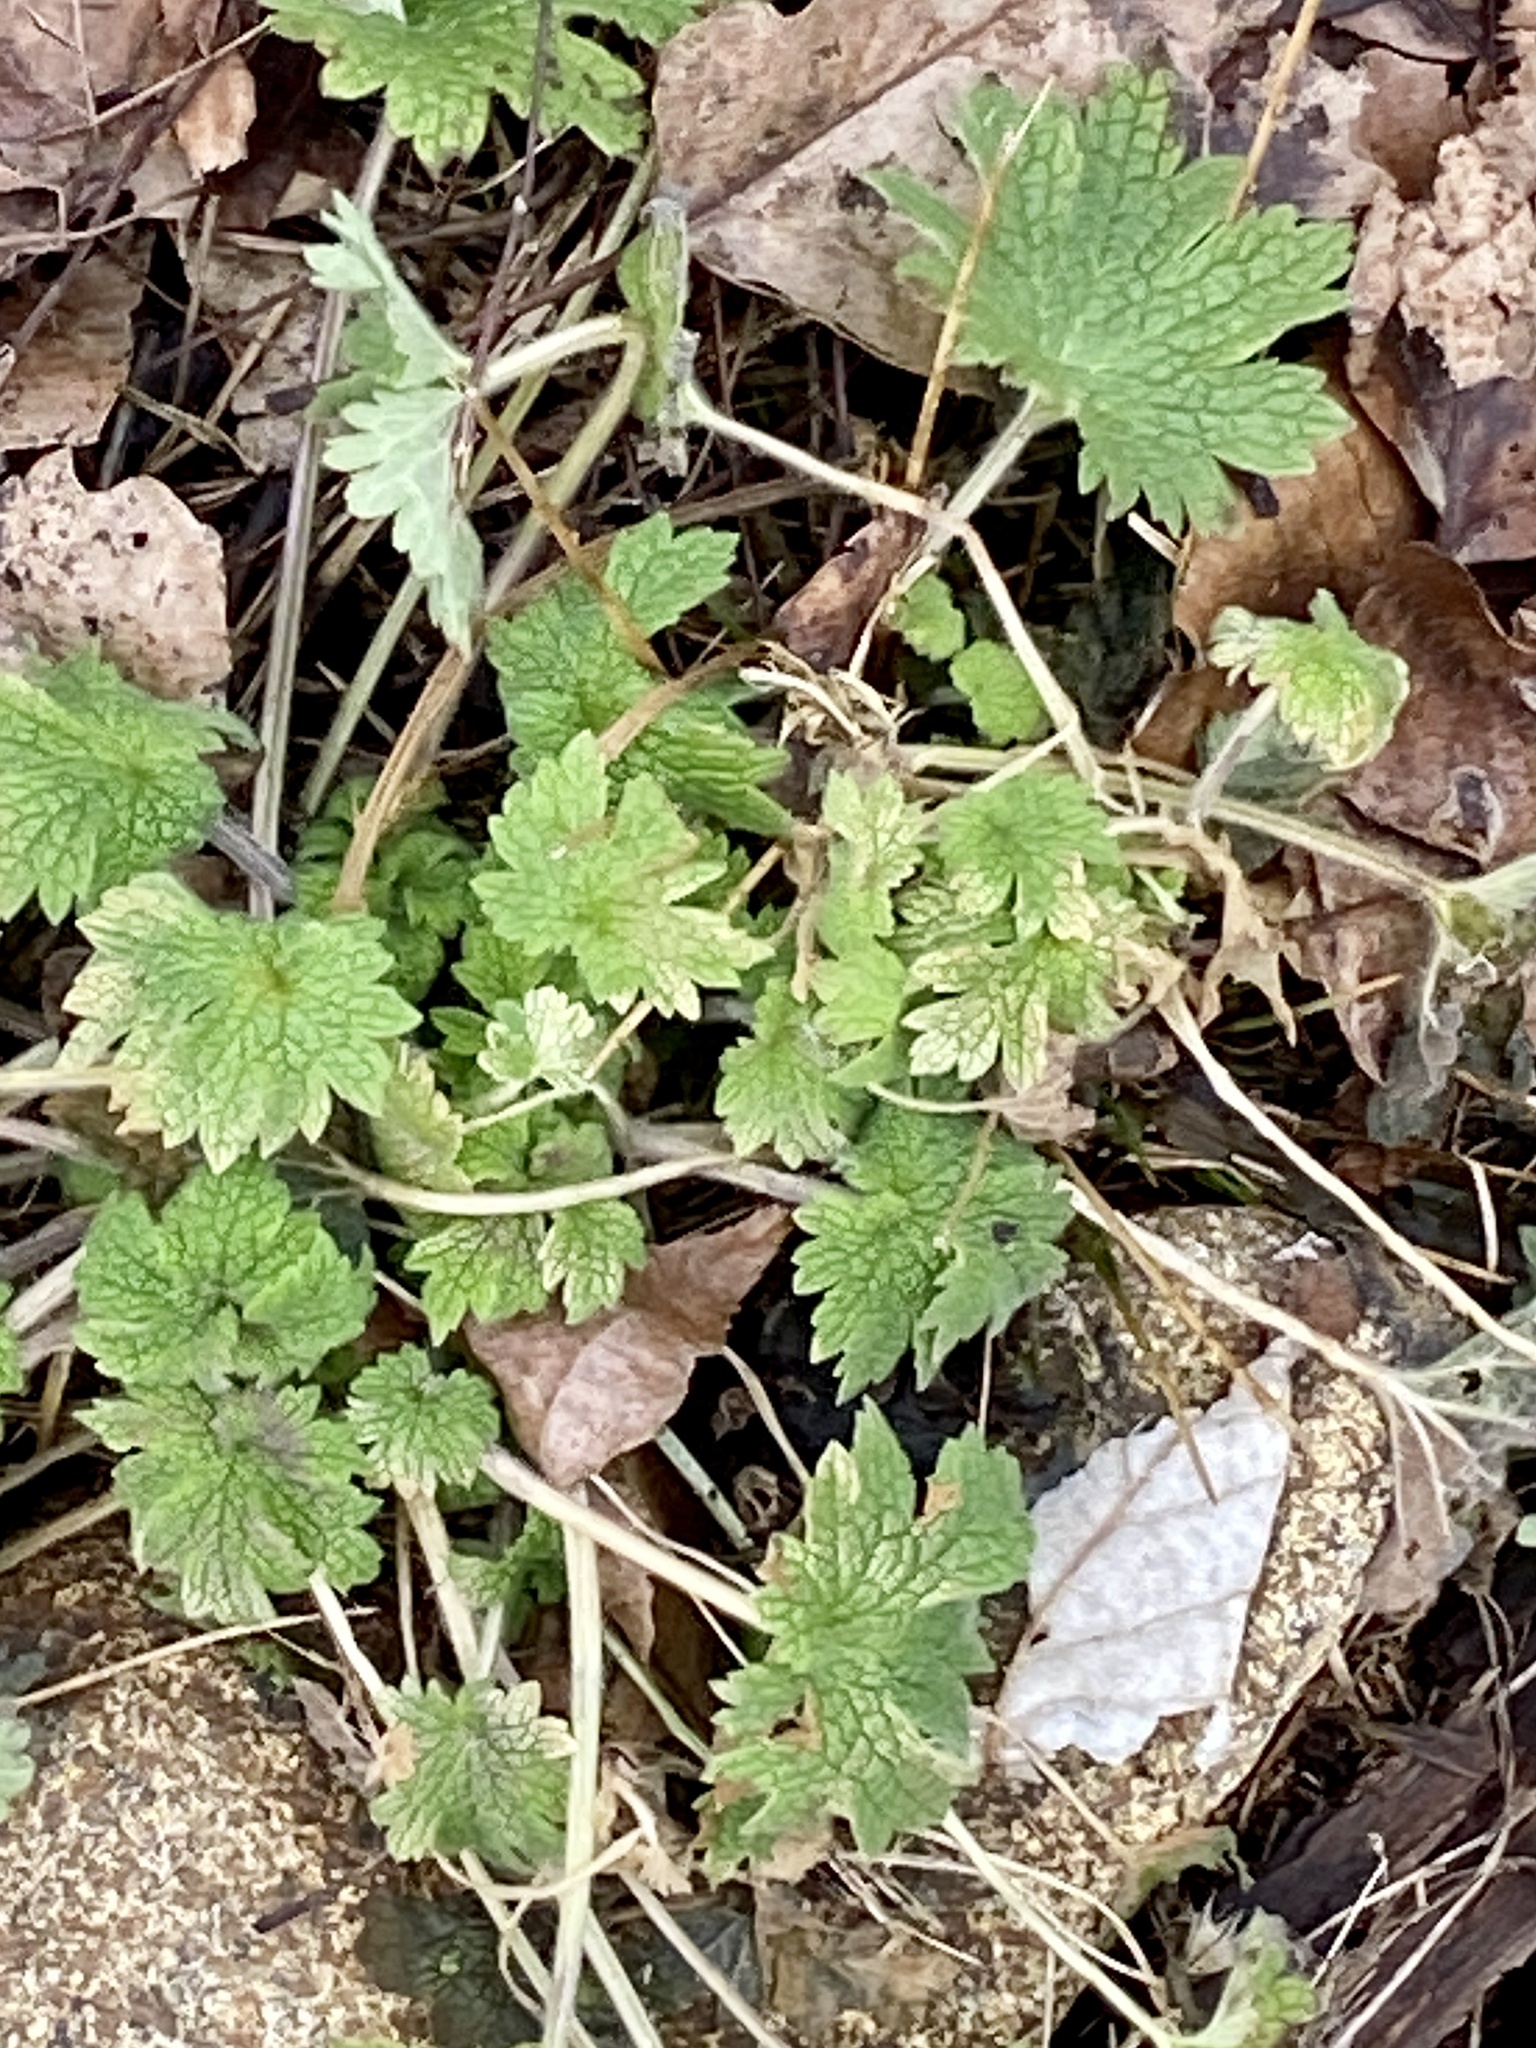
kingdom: Plantae
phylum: Tracheophyta
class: Magnoliopsida
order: Lamiales
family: Lamiaceae
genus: Leonurus
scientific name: Leonurus cardiaca
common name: Motherwort
